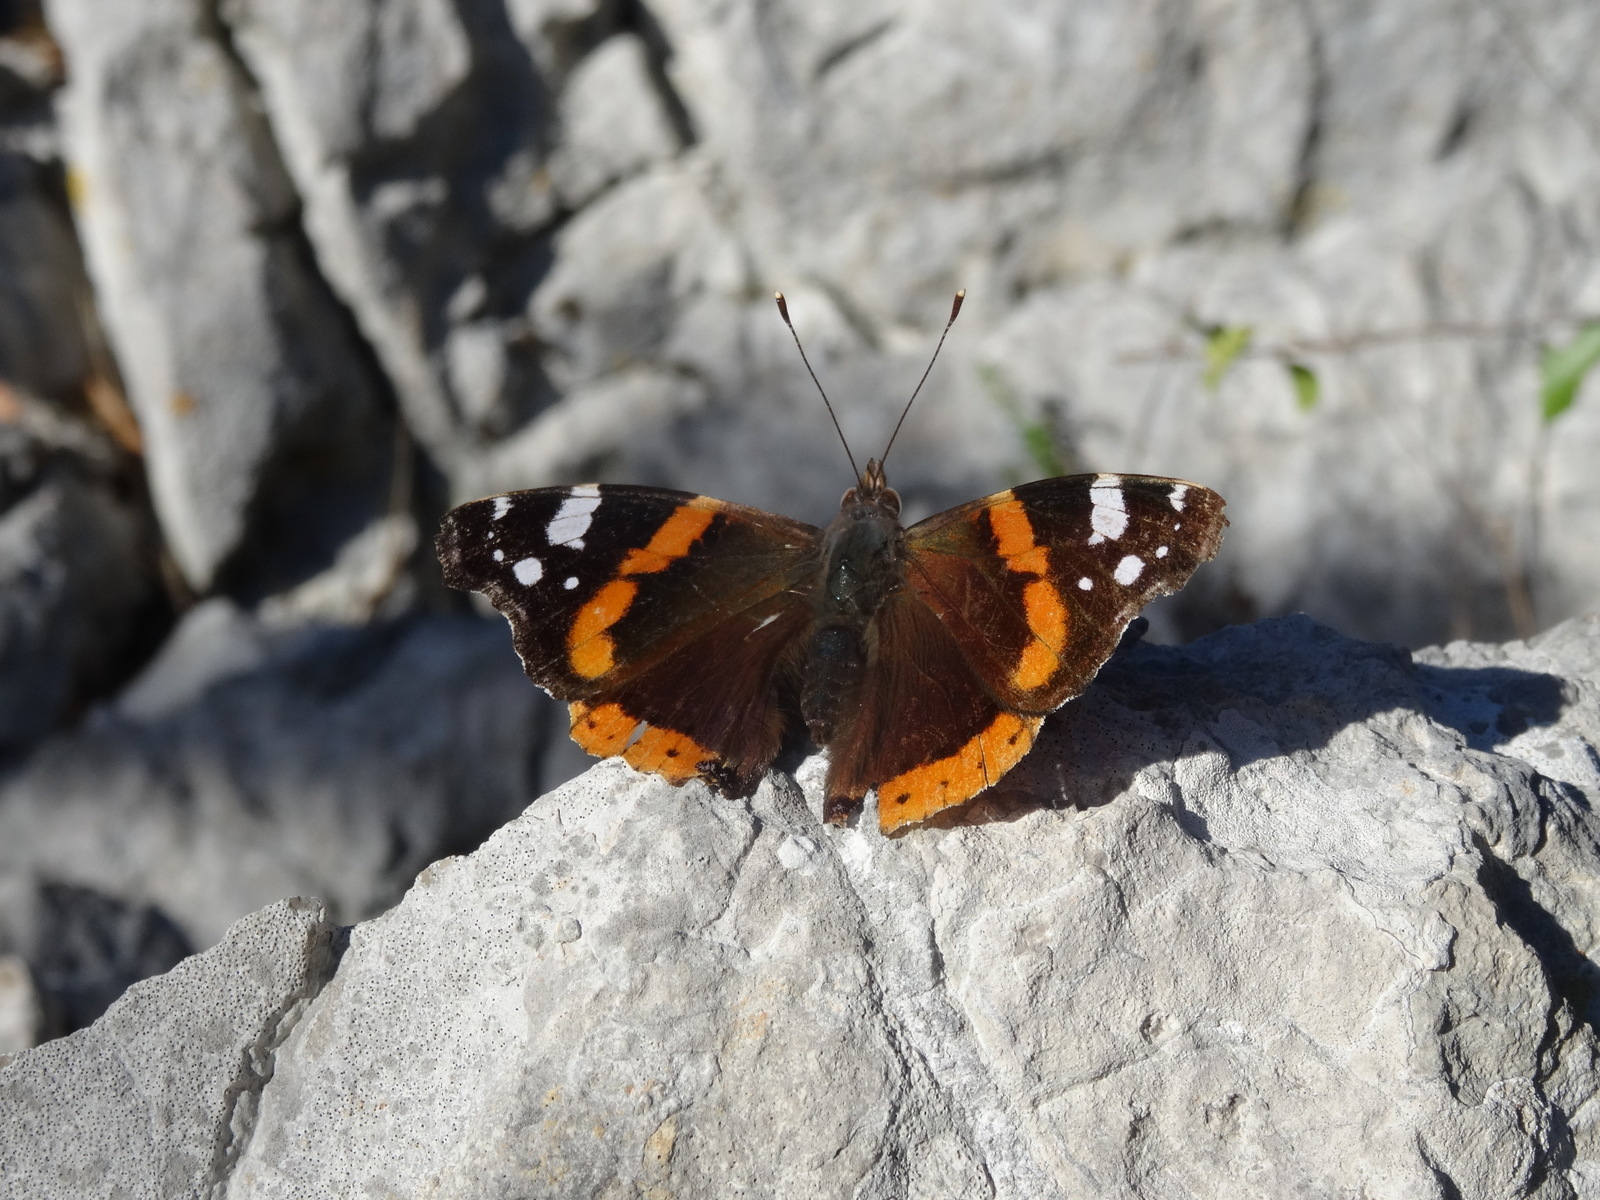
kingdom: Animalia
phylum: Arthropoda
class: Insecta
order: Lepidoptera
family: Nymphalidae
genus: Vanessa
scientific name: Vanessa atalanta
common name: Red admiral
